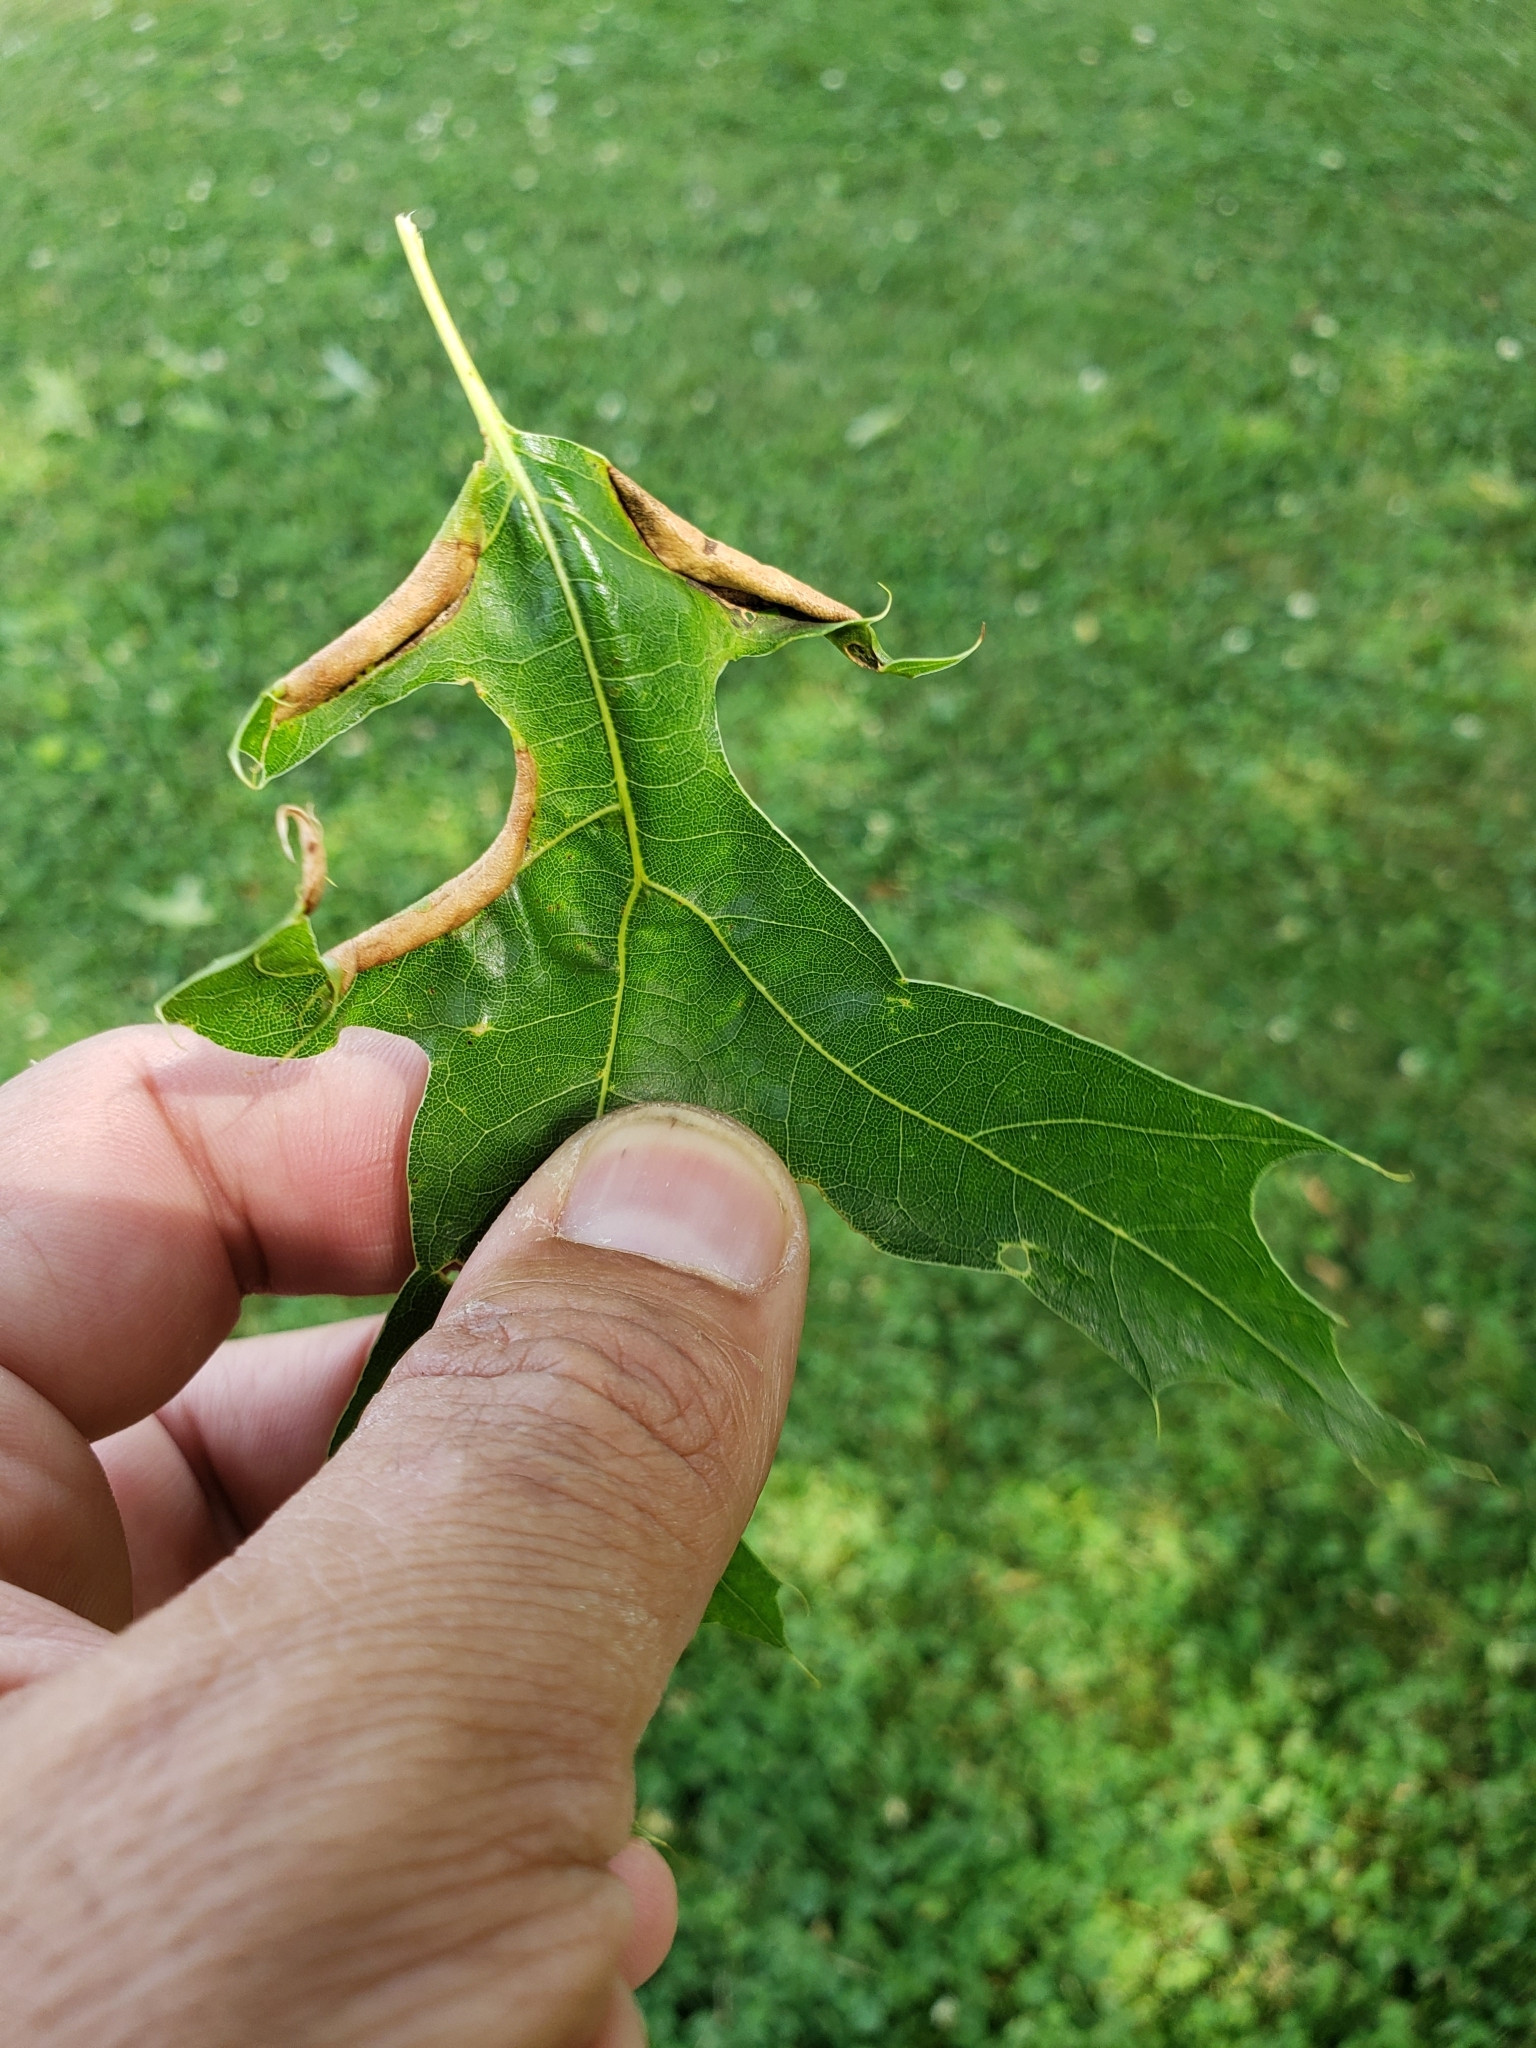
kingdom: Animalia
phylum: Arthropoda
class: Insecta
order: Diptera
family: Cecidomyiidae
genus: Macrodiplosis
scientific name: Macrodiplosis erubescens
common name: Marginal leaf fold gall midge
